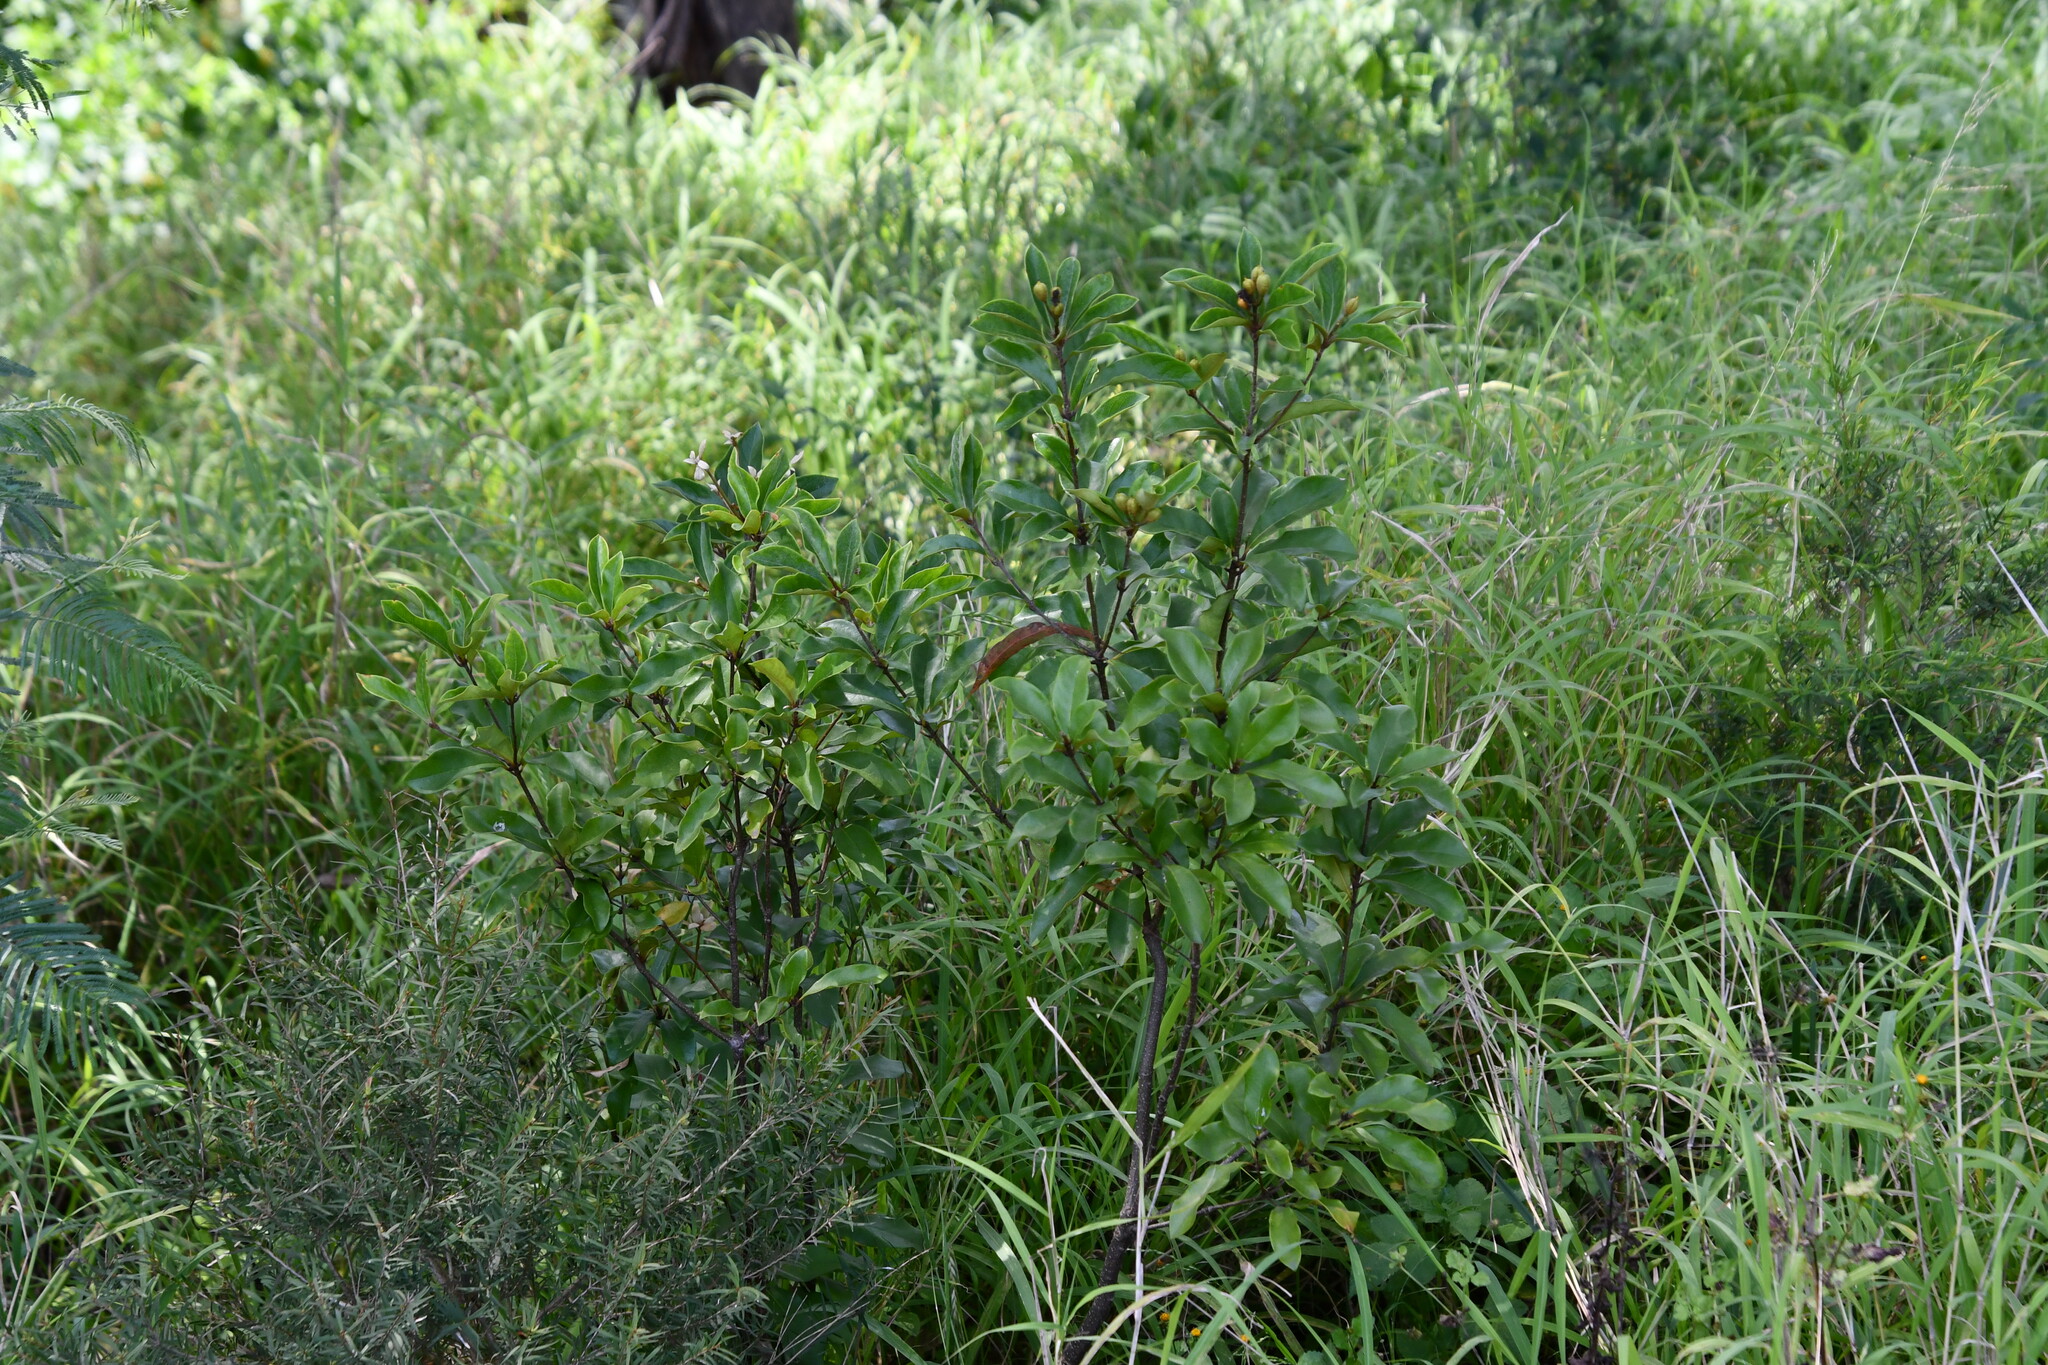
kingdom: Plantae
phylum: Tracheophyta
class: Magnoliopsida
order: Apiales
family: Pittosporaceae
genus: Pittosporum
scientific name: Pittosporum revolutum
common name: Brisbane-laurel
